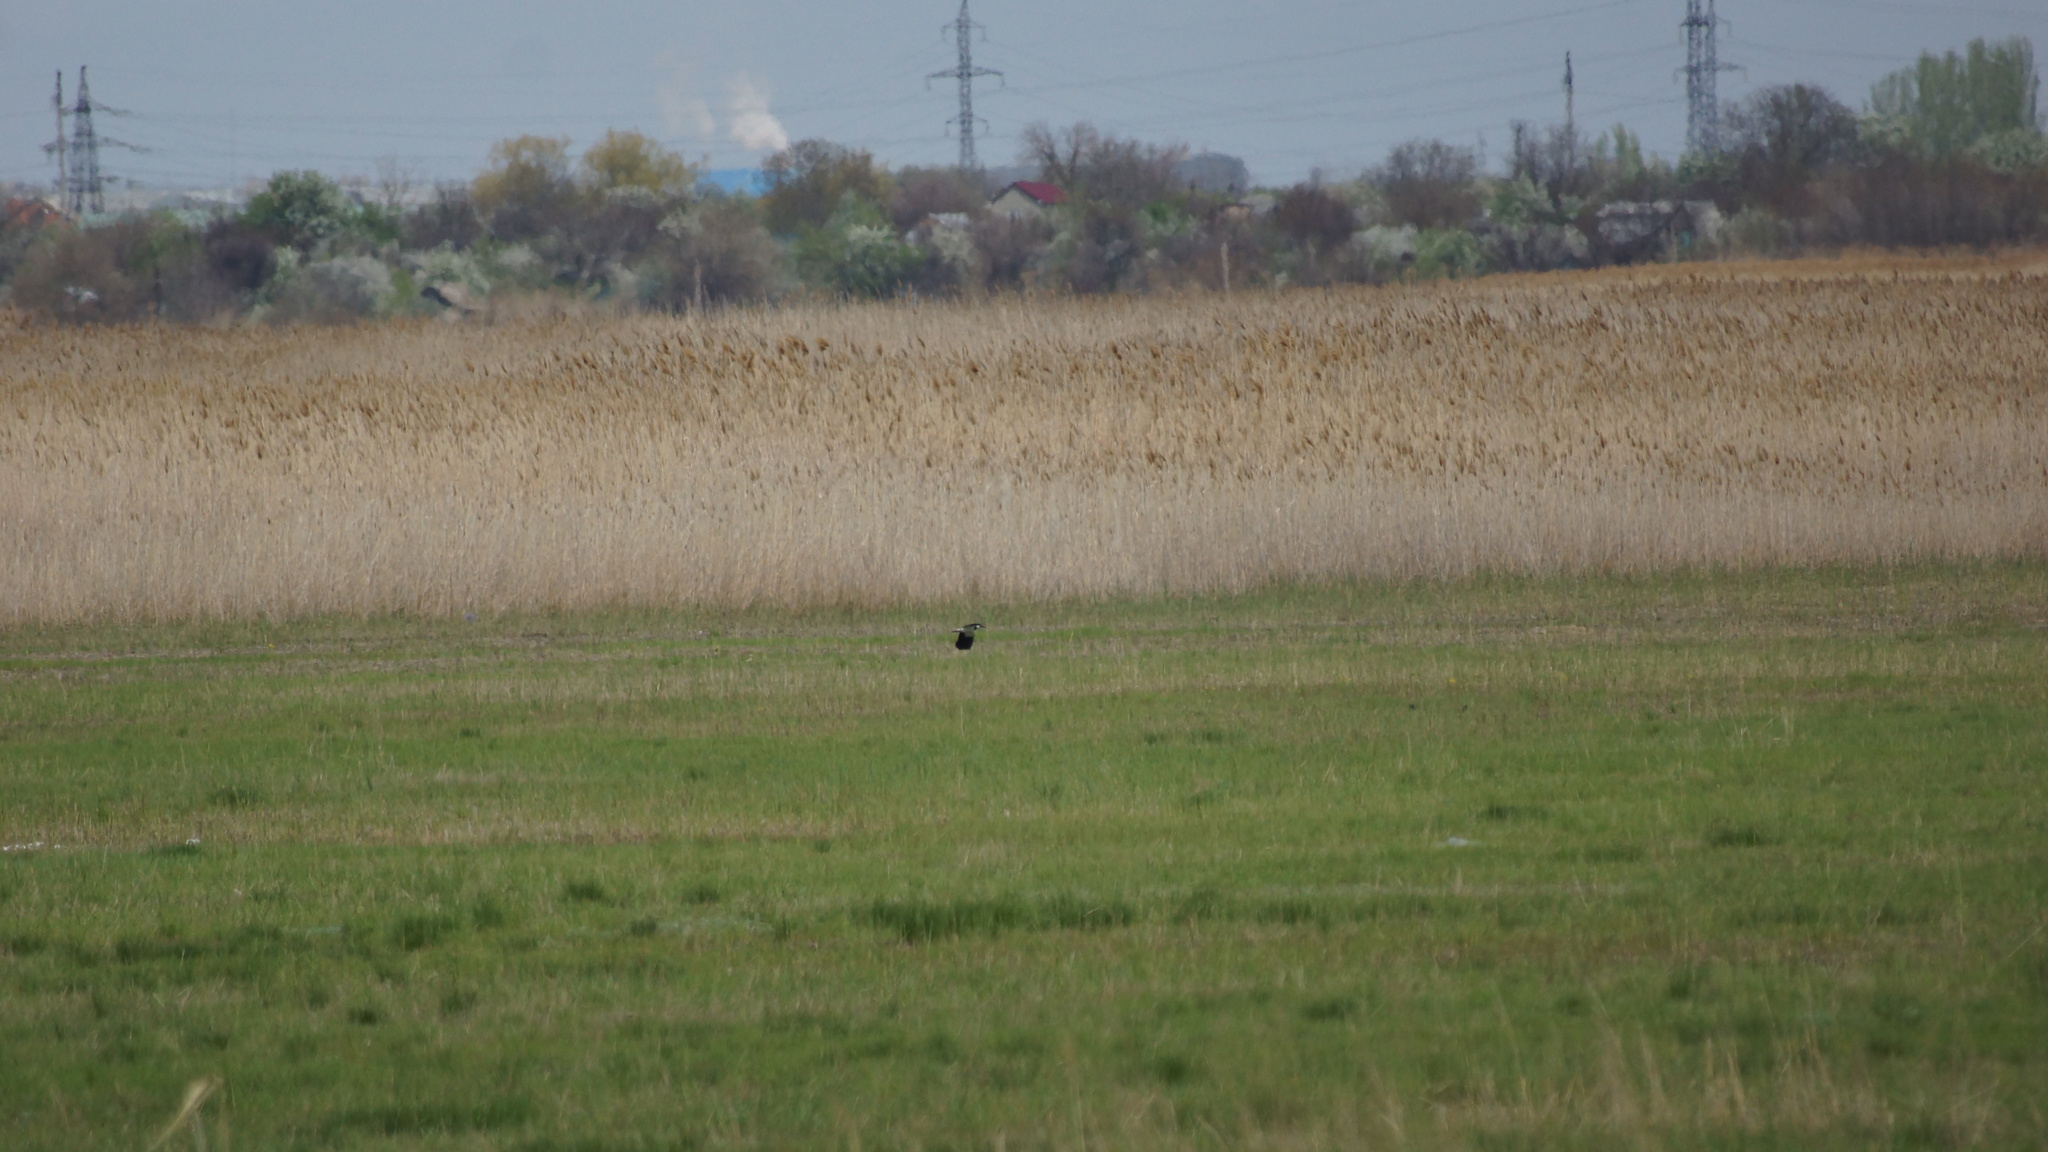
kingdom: Animalia
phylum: Chordata
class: Aves
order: Charadriiformes
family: Charadriidae
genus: Vanellus
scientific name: Vanellus vanellus
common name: Northern lapwing
